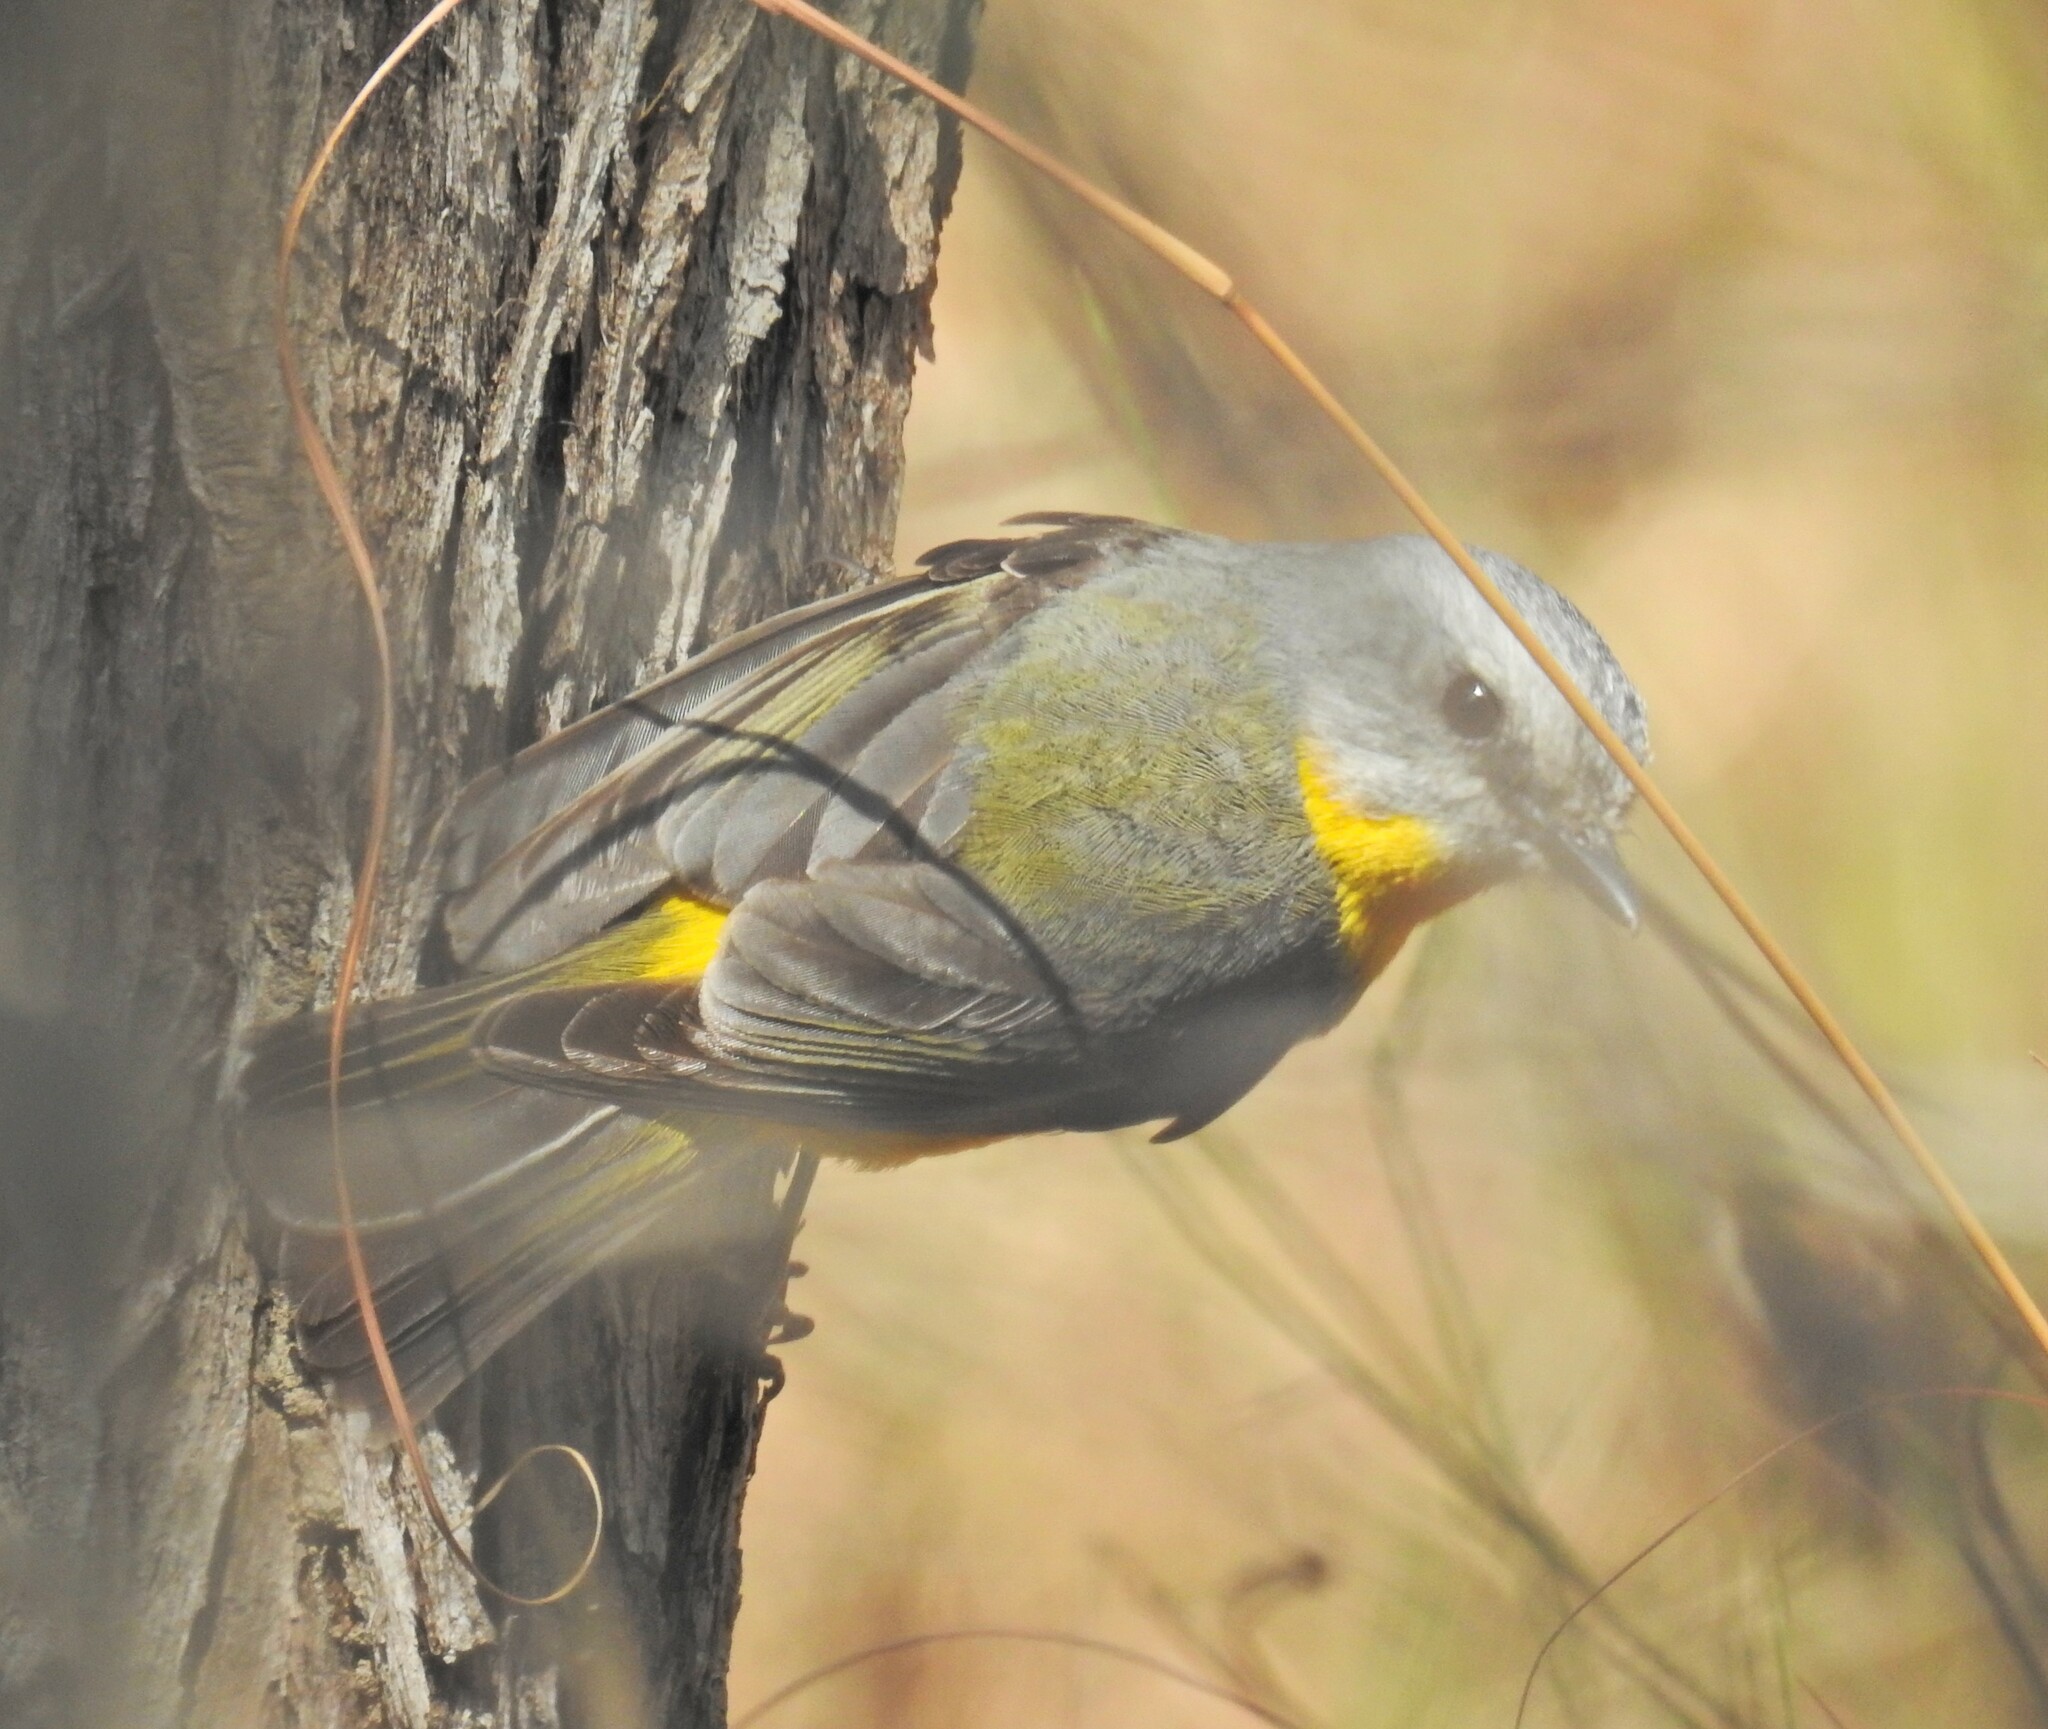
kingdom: Animalia
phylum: Chordata
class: Aves
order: Passeriformes
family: Petroicidae
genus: Eopsaltria
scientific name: Eopsaltria australis
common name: Eastern yellow robin
